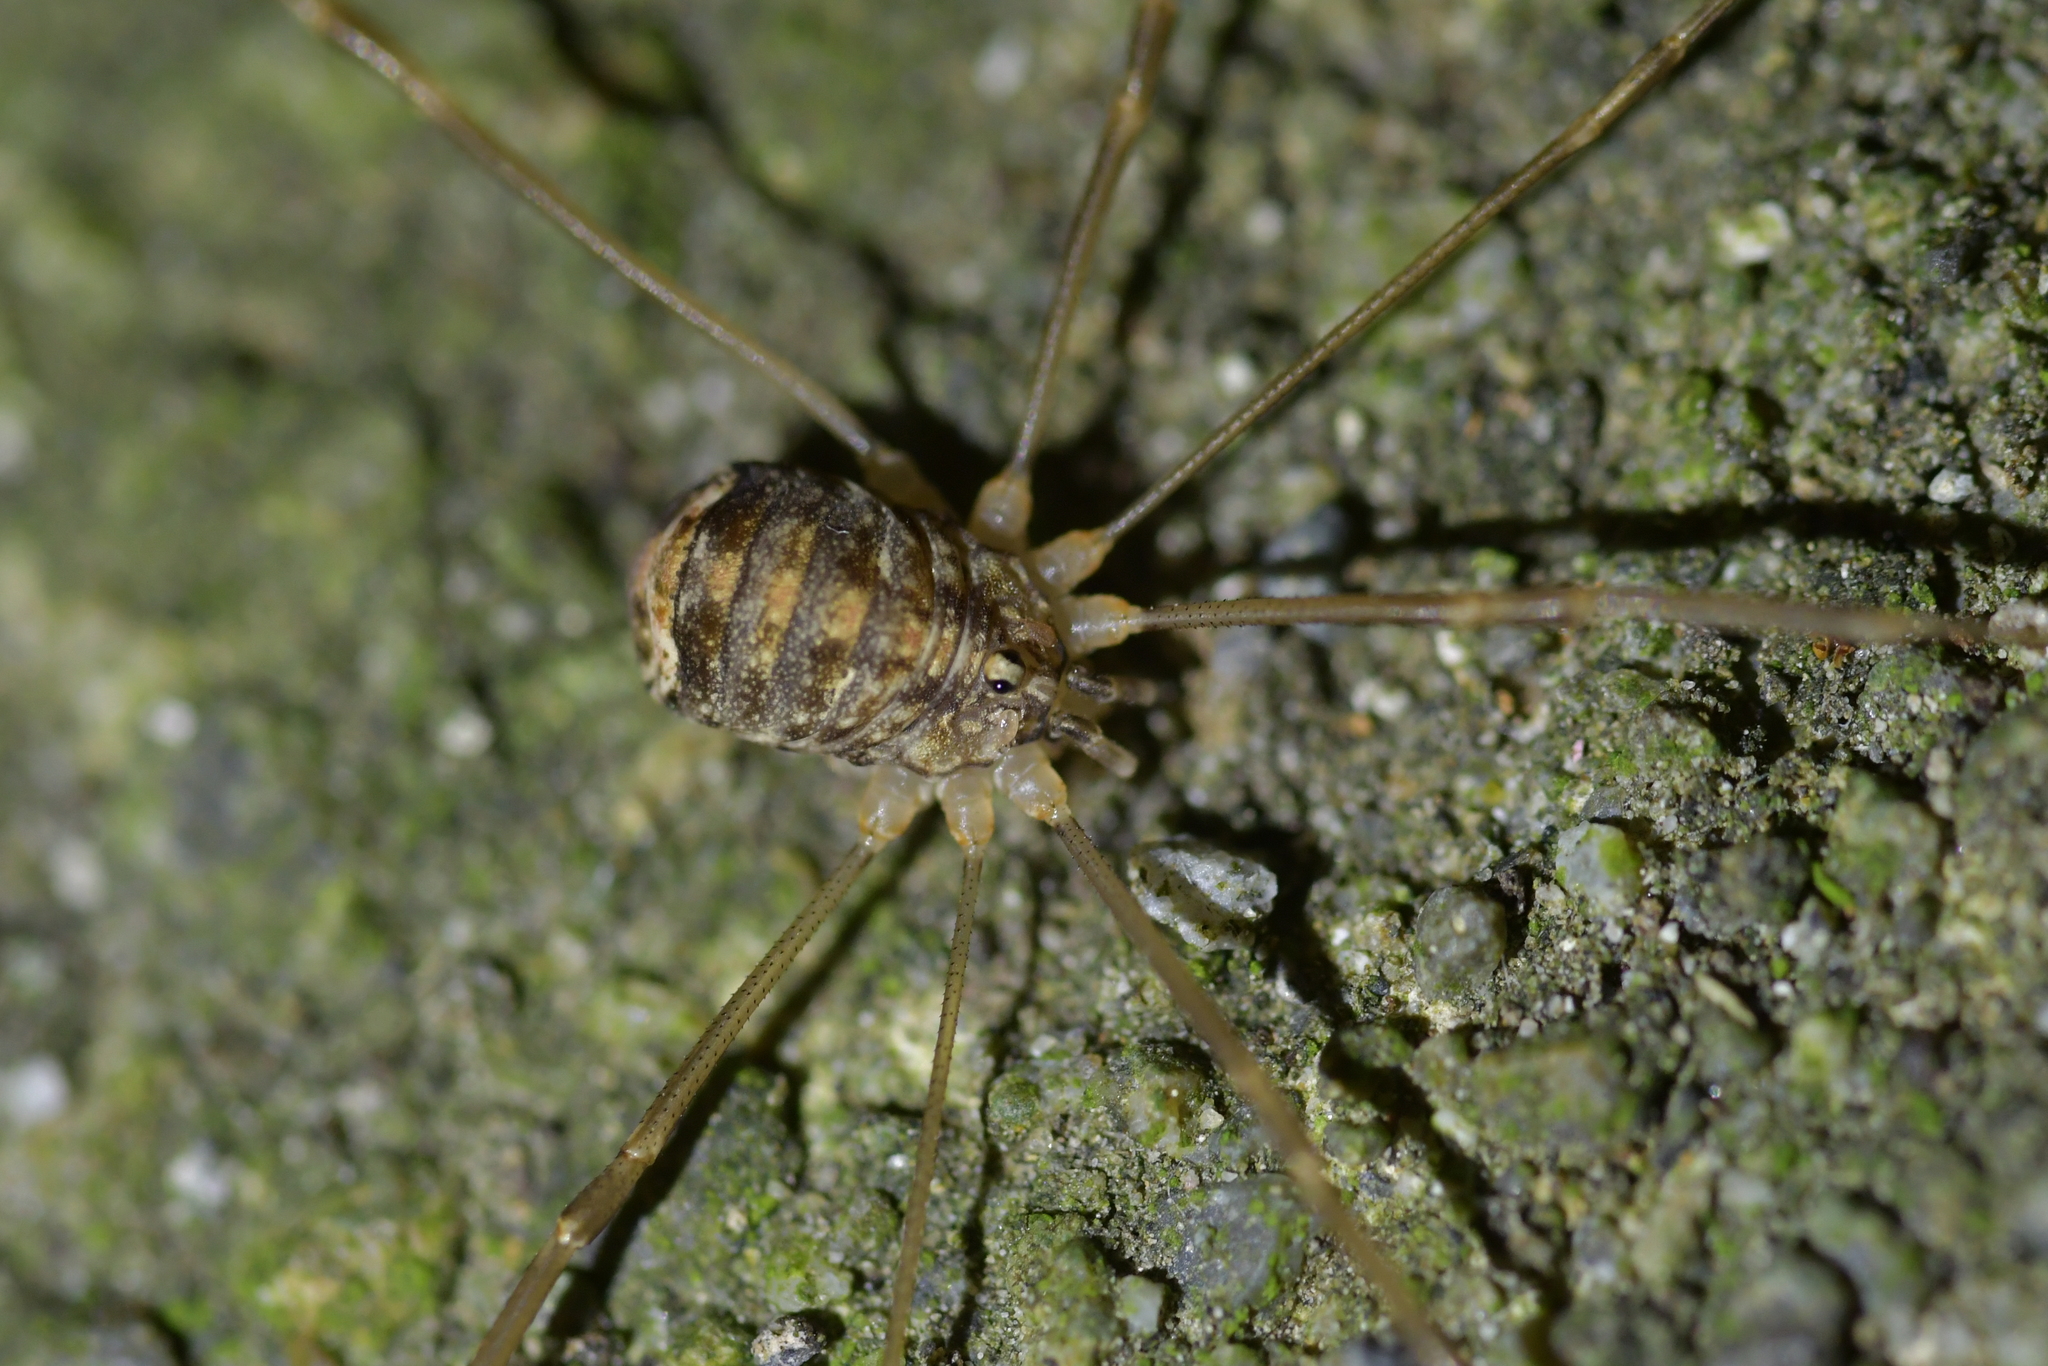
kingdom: Animalia
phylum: Arthropoda
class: Arachnida
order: Opiliones
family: Sclerosomatidae
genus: Nelima
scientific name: Nelima doriae
